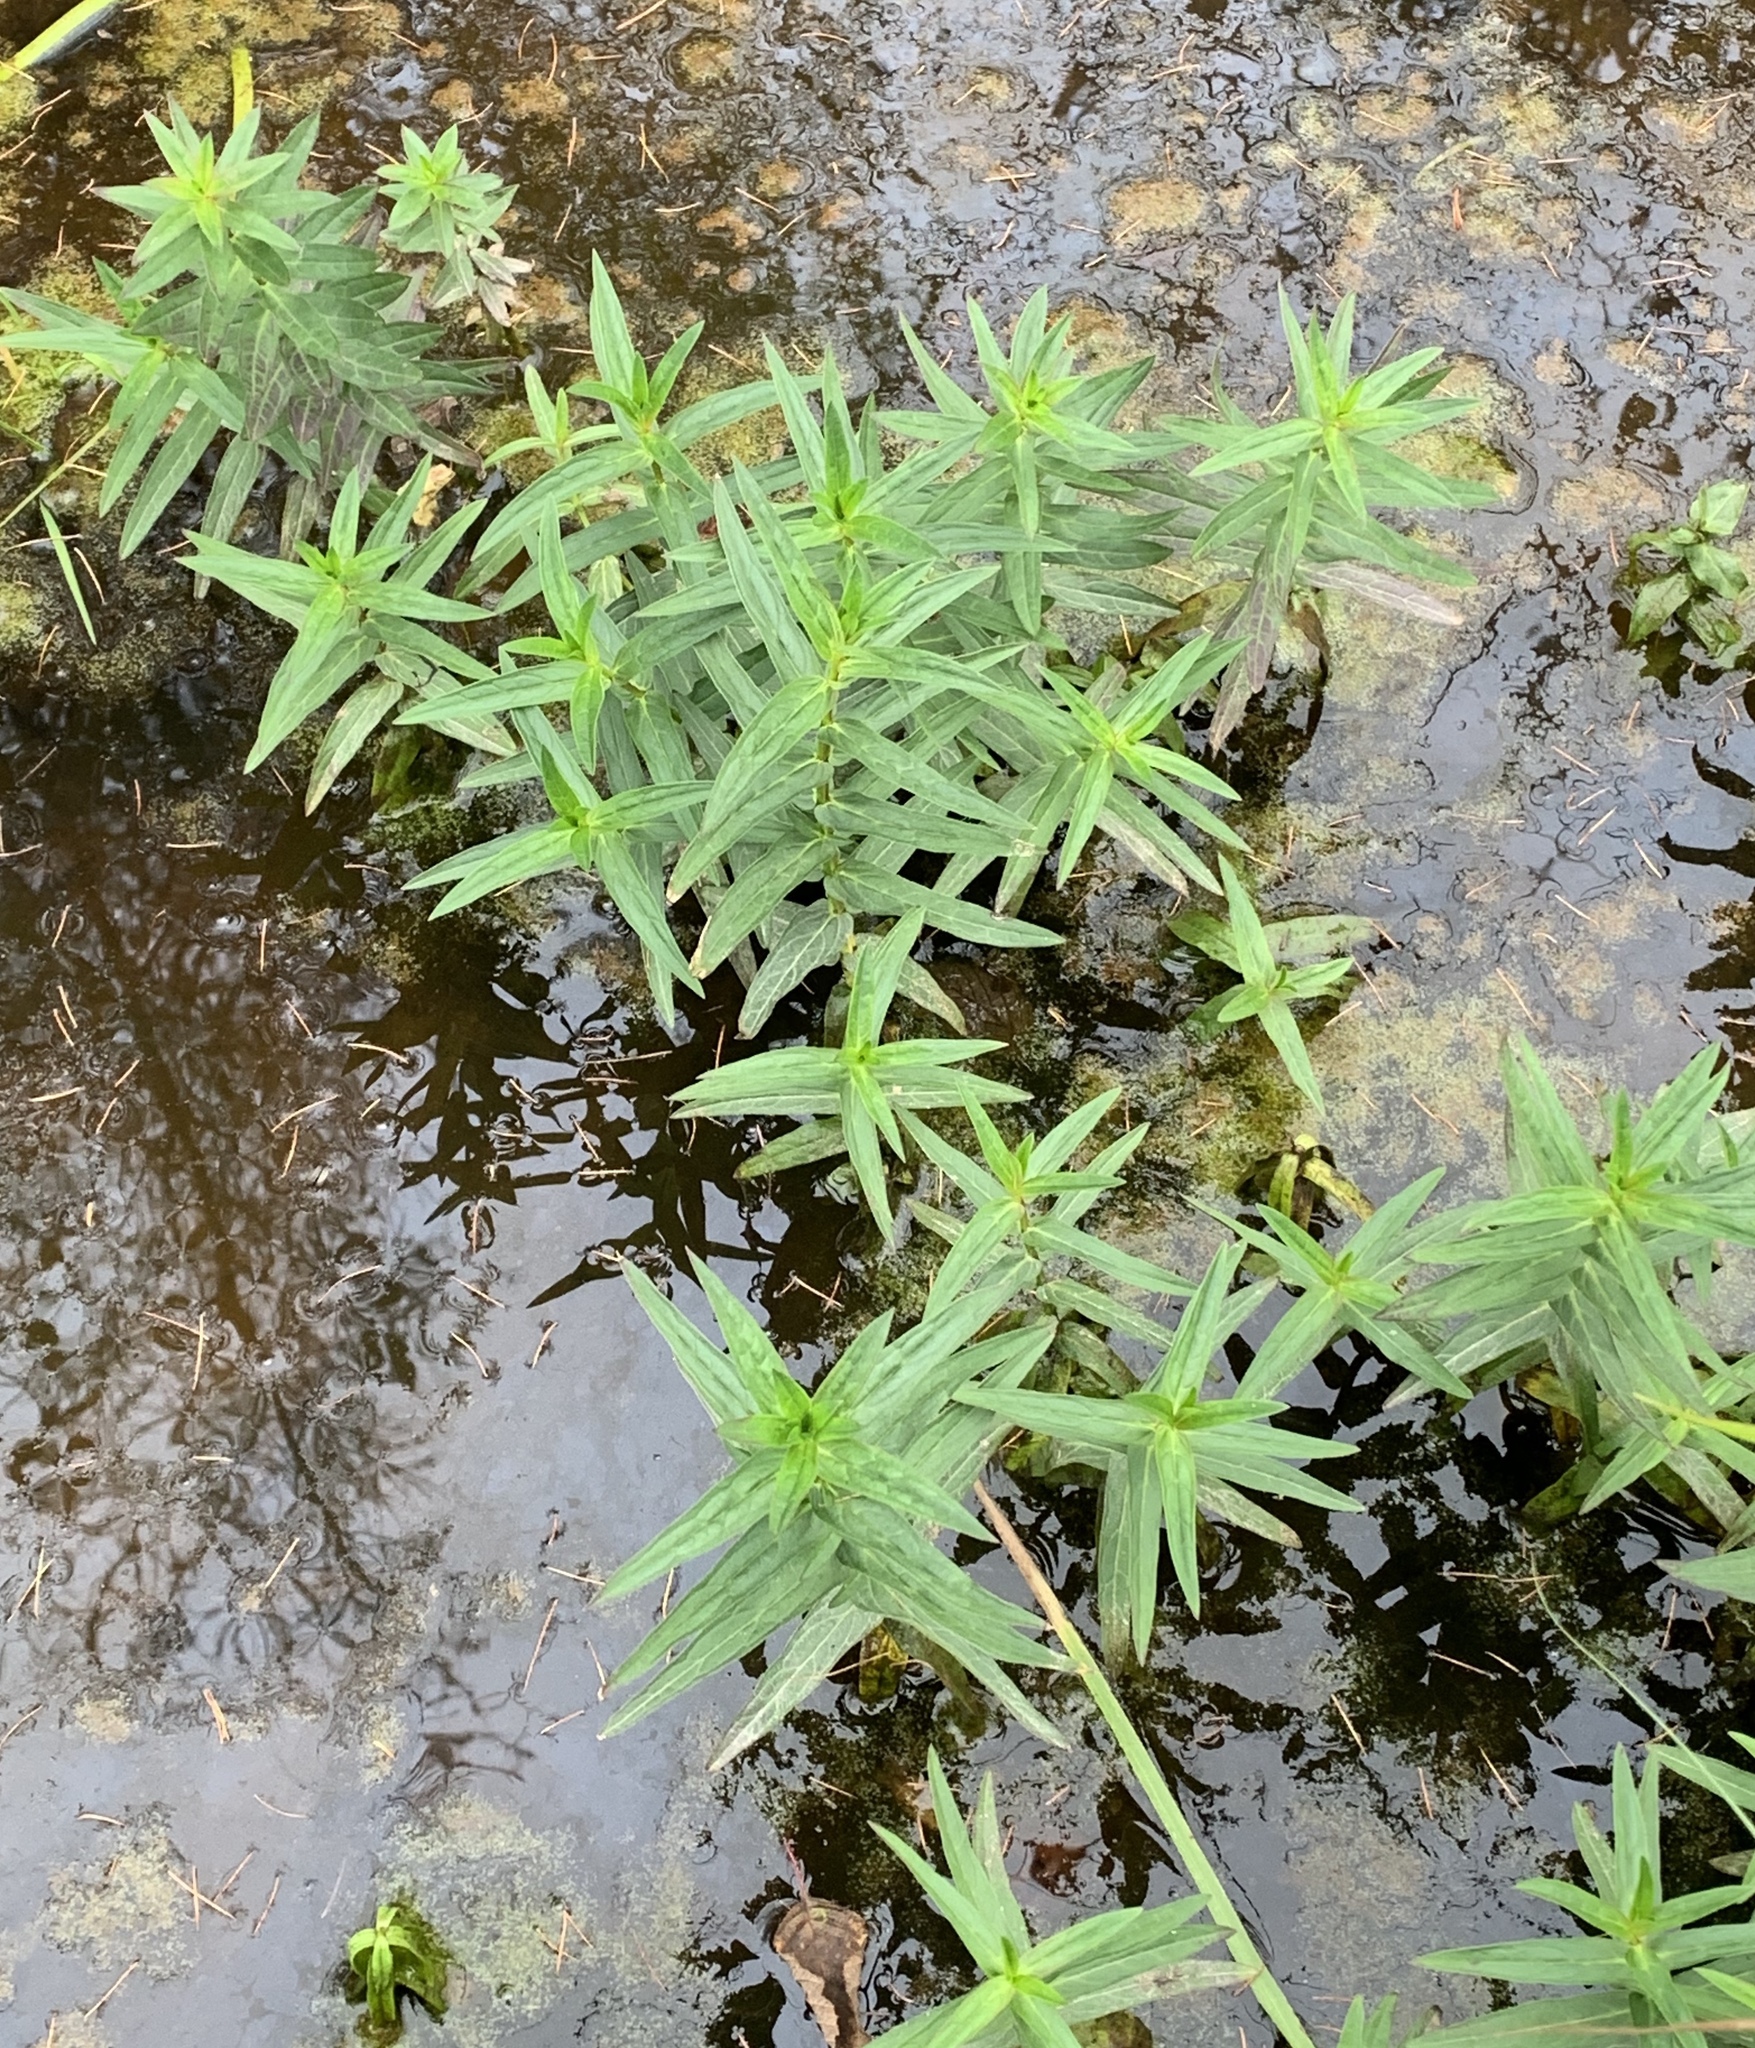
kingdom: Plantae
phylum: Tracheophyta
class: Magnoliopsida
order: Myrtales
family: Lythraceae
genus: Lythrum
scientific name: Lythrum salicaria
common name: Purple loosestrife
